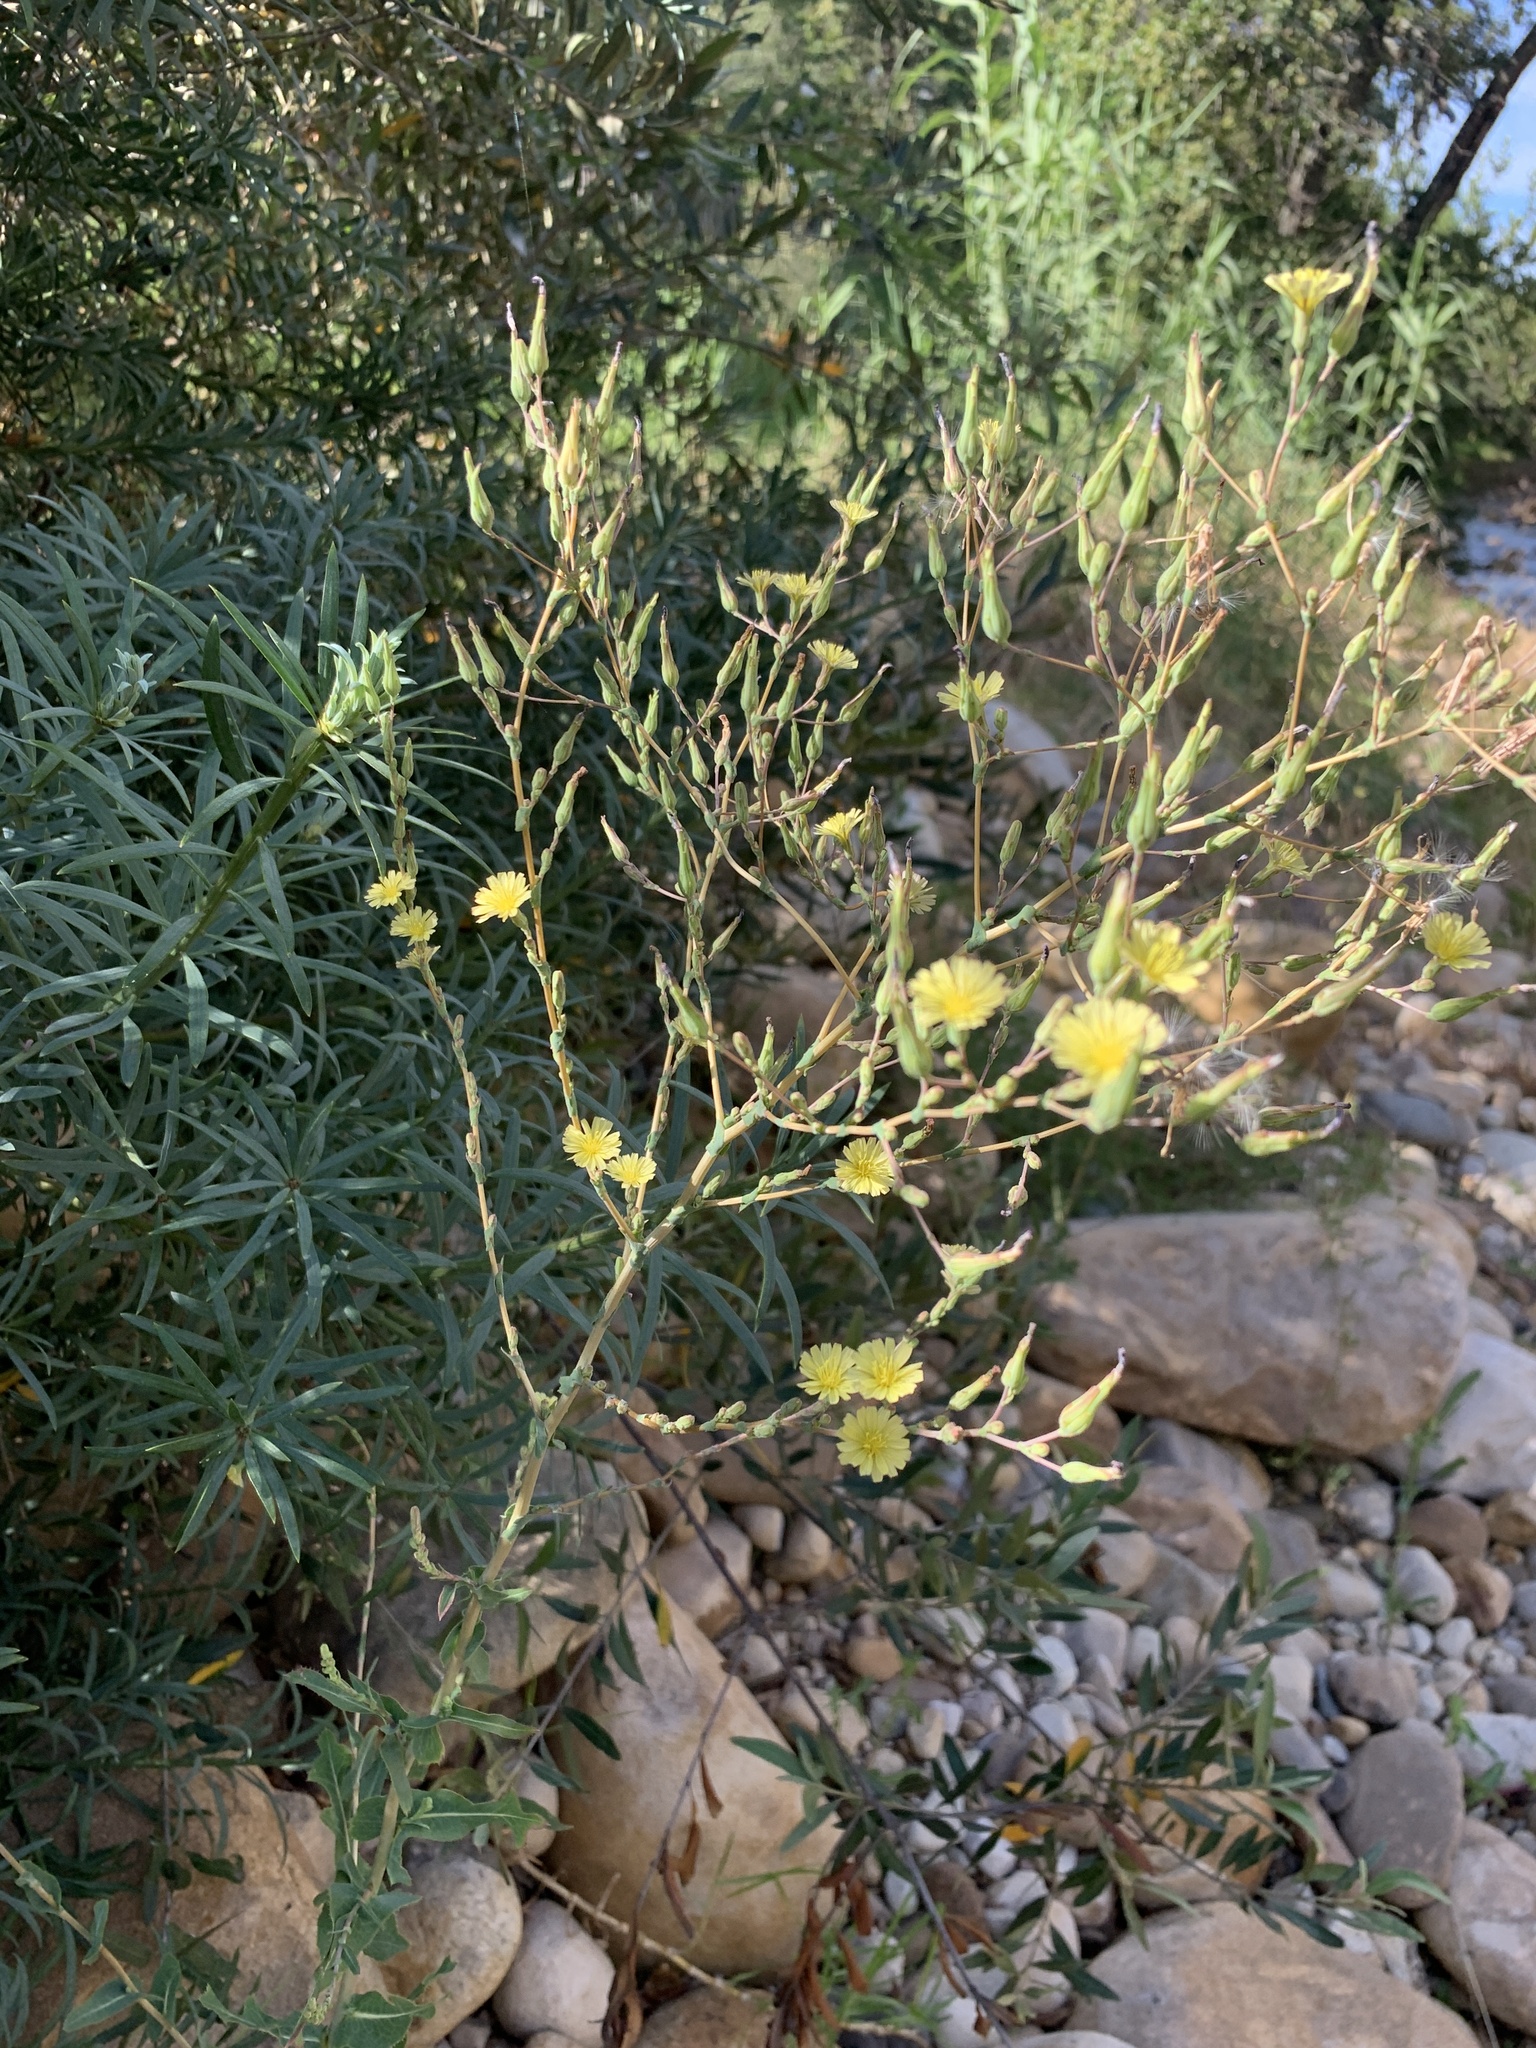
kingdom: Plantae
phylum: Tracheophyta
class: Magnoliopsida
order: Asterales
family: Asteraceae
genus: Lactuca
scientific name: Lactuca serriola
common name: Prickly lettuce
